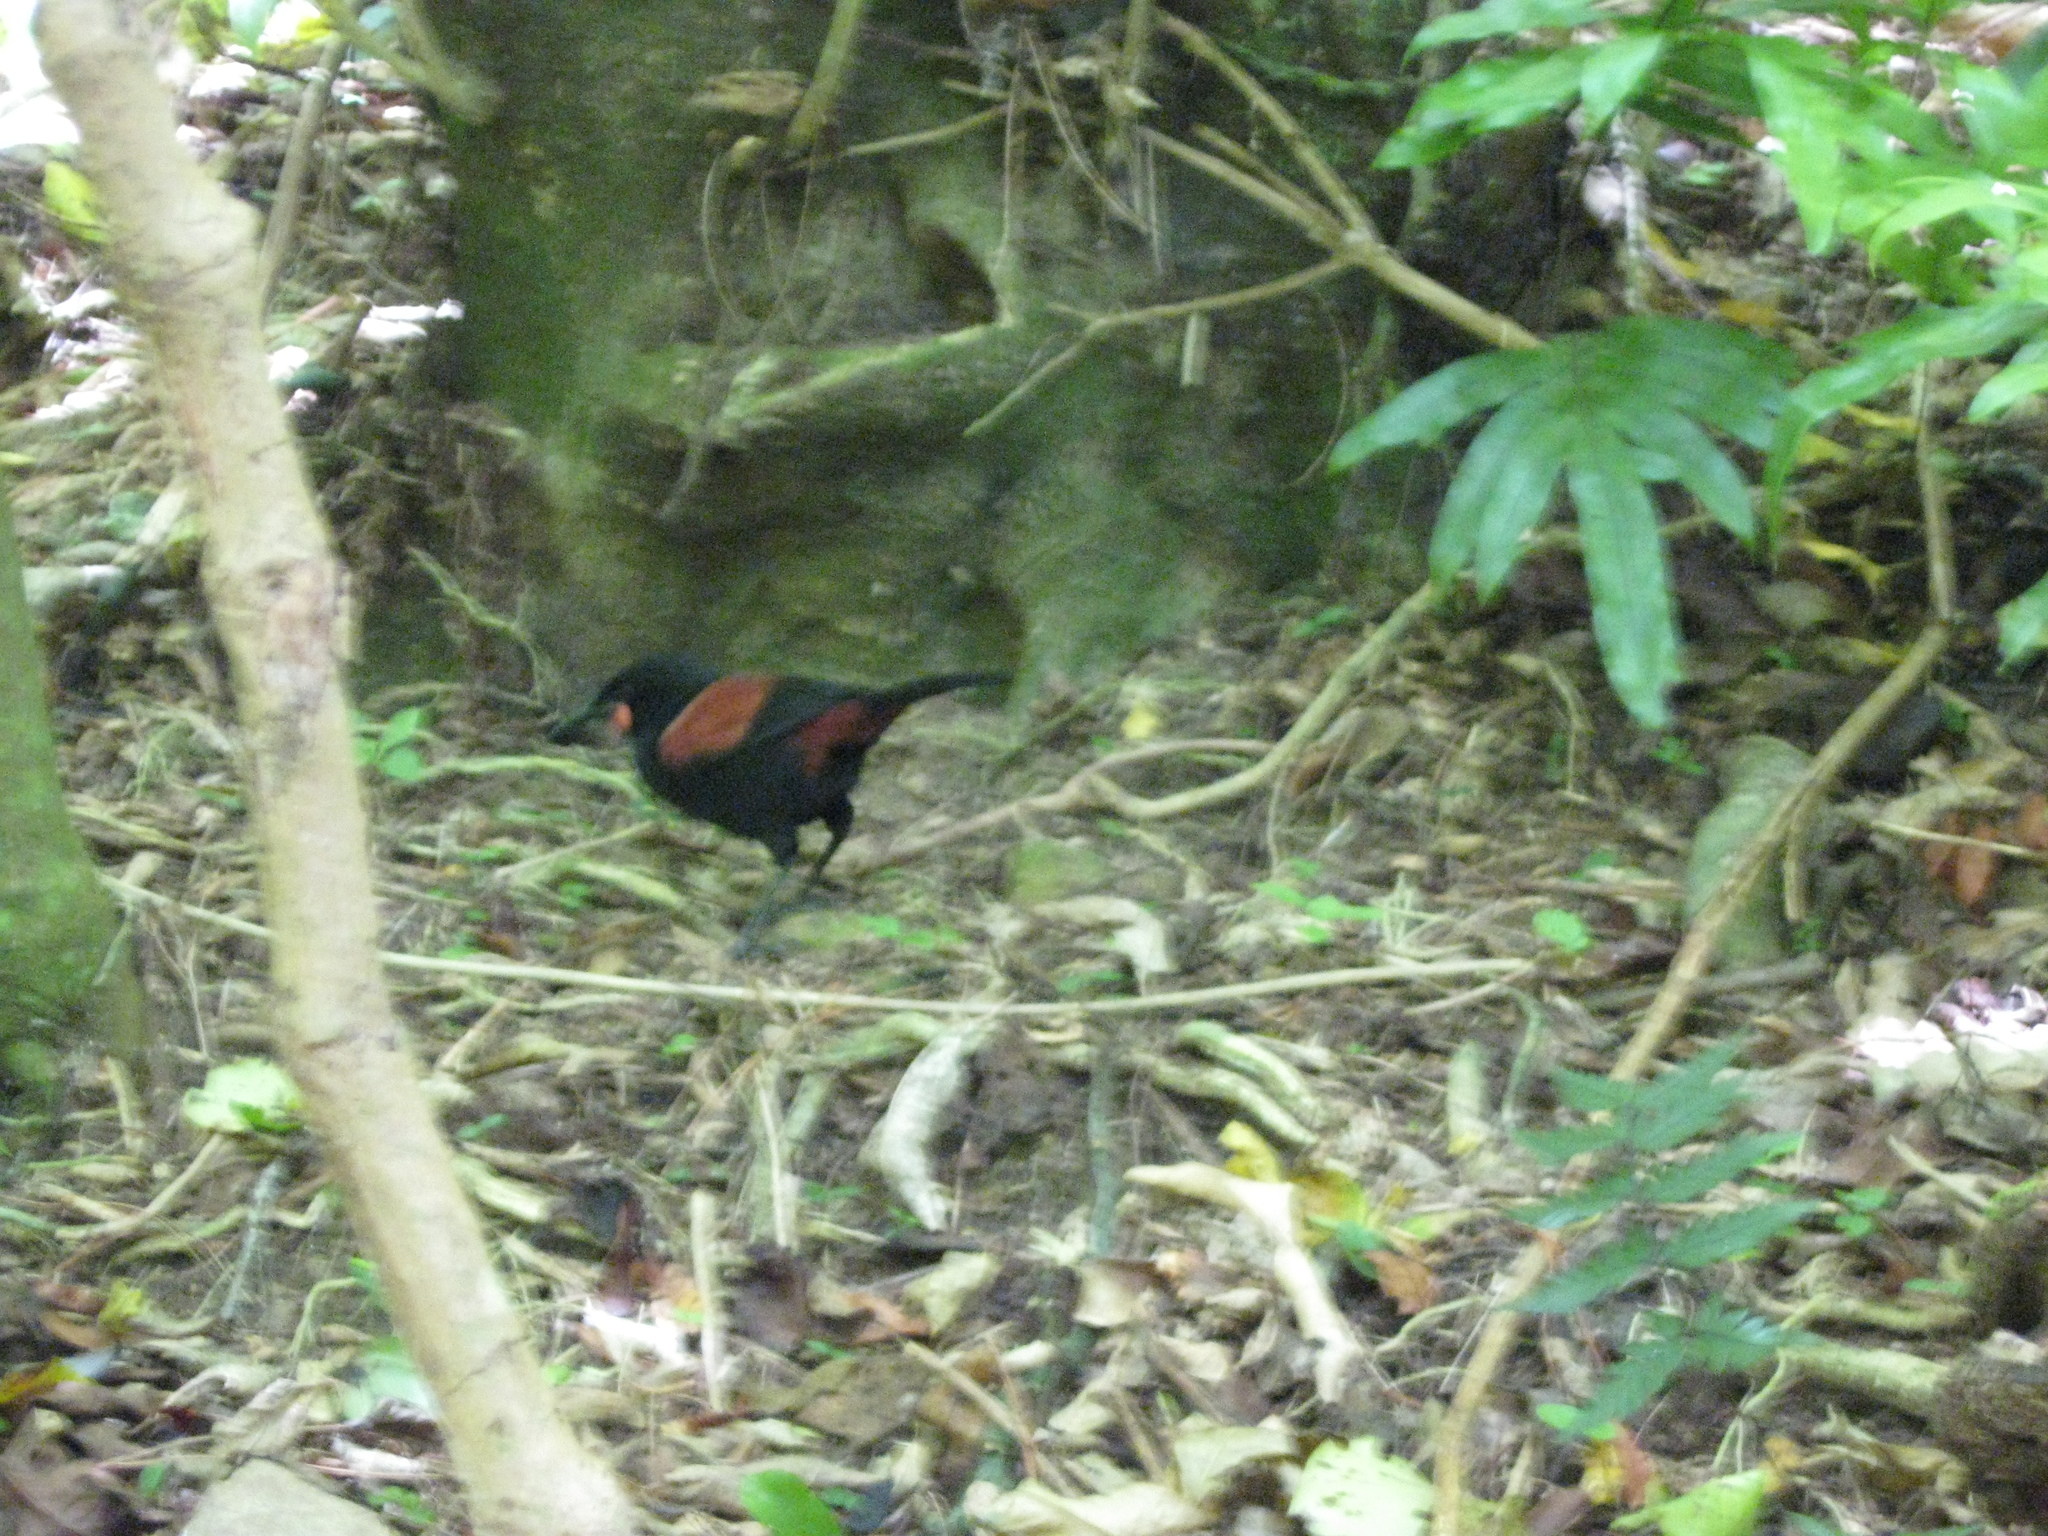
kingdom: Animalia
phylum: Chordata
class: Aves
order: Passeriformes
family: Callaeatidae
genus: Philesturnus
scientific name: Philesturnus carunculatus
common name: South island saddleback
